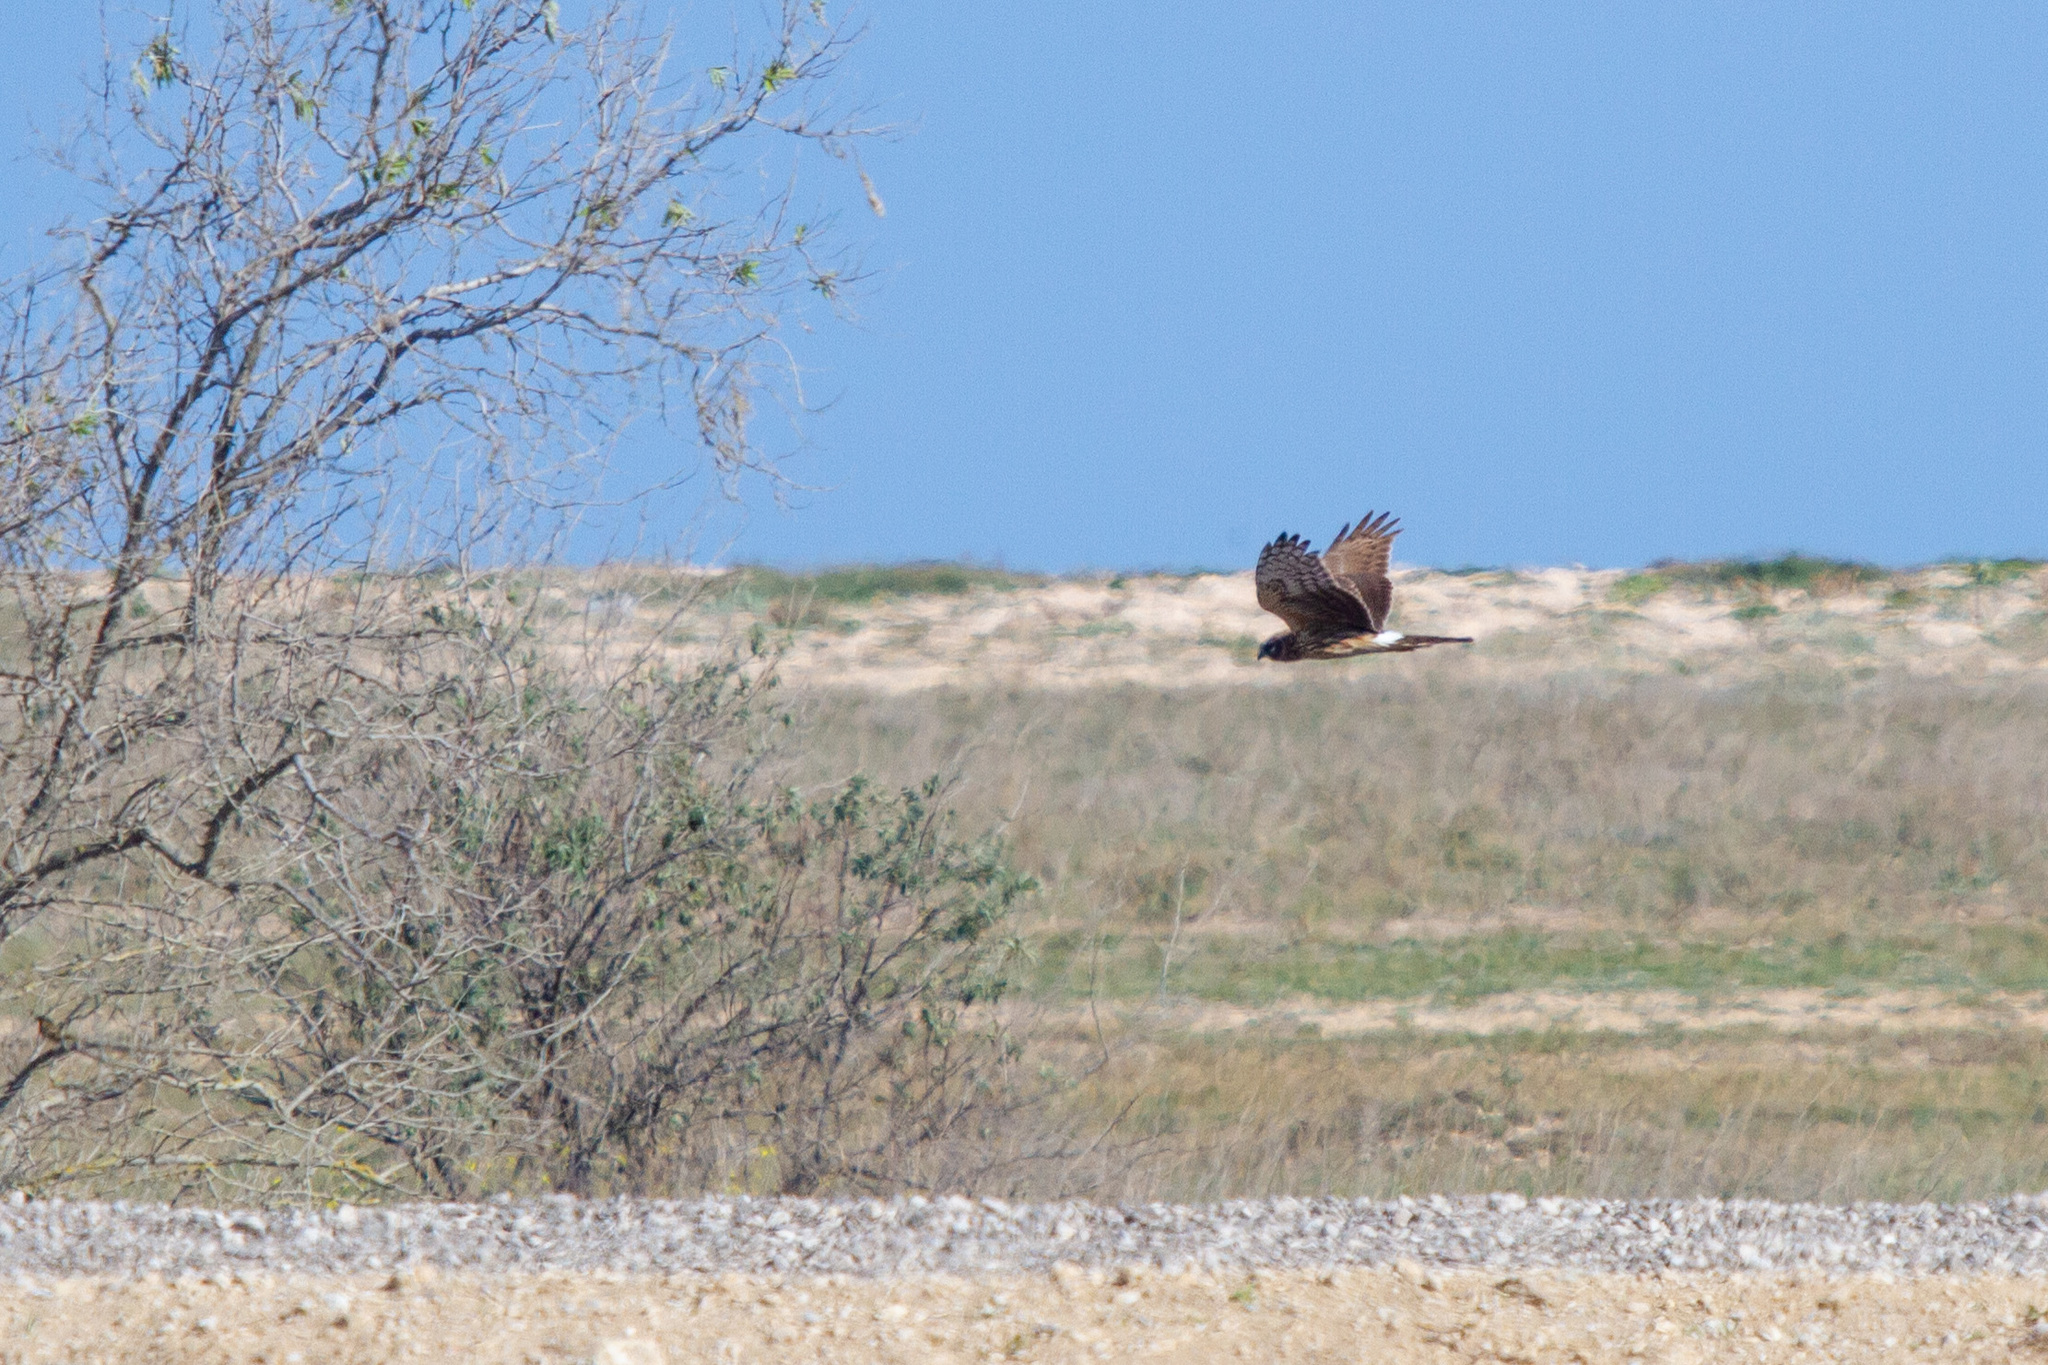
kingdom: Animalia
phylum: Chordata
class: Aves
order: Accipitriformes
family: Accipitridae
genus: Circus
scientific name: Circus cyaneus
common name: Hen harrier
